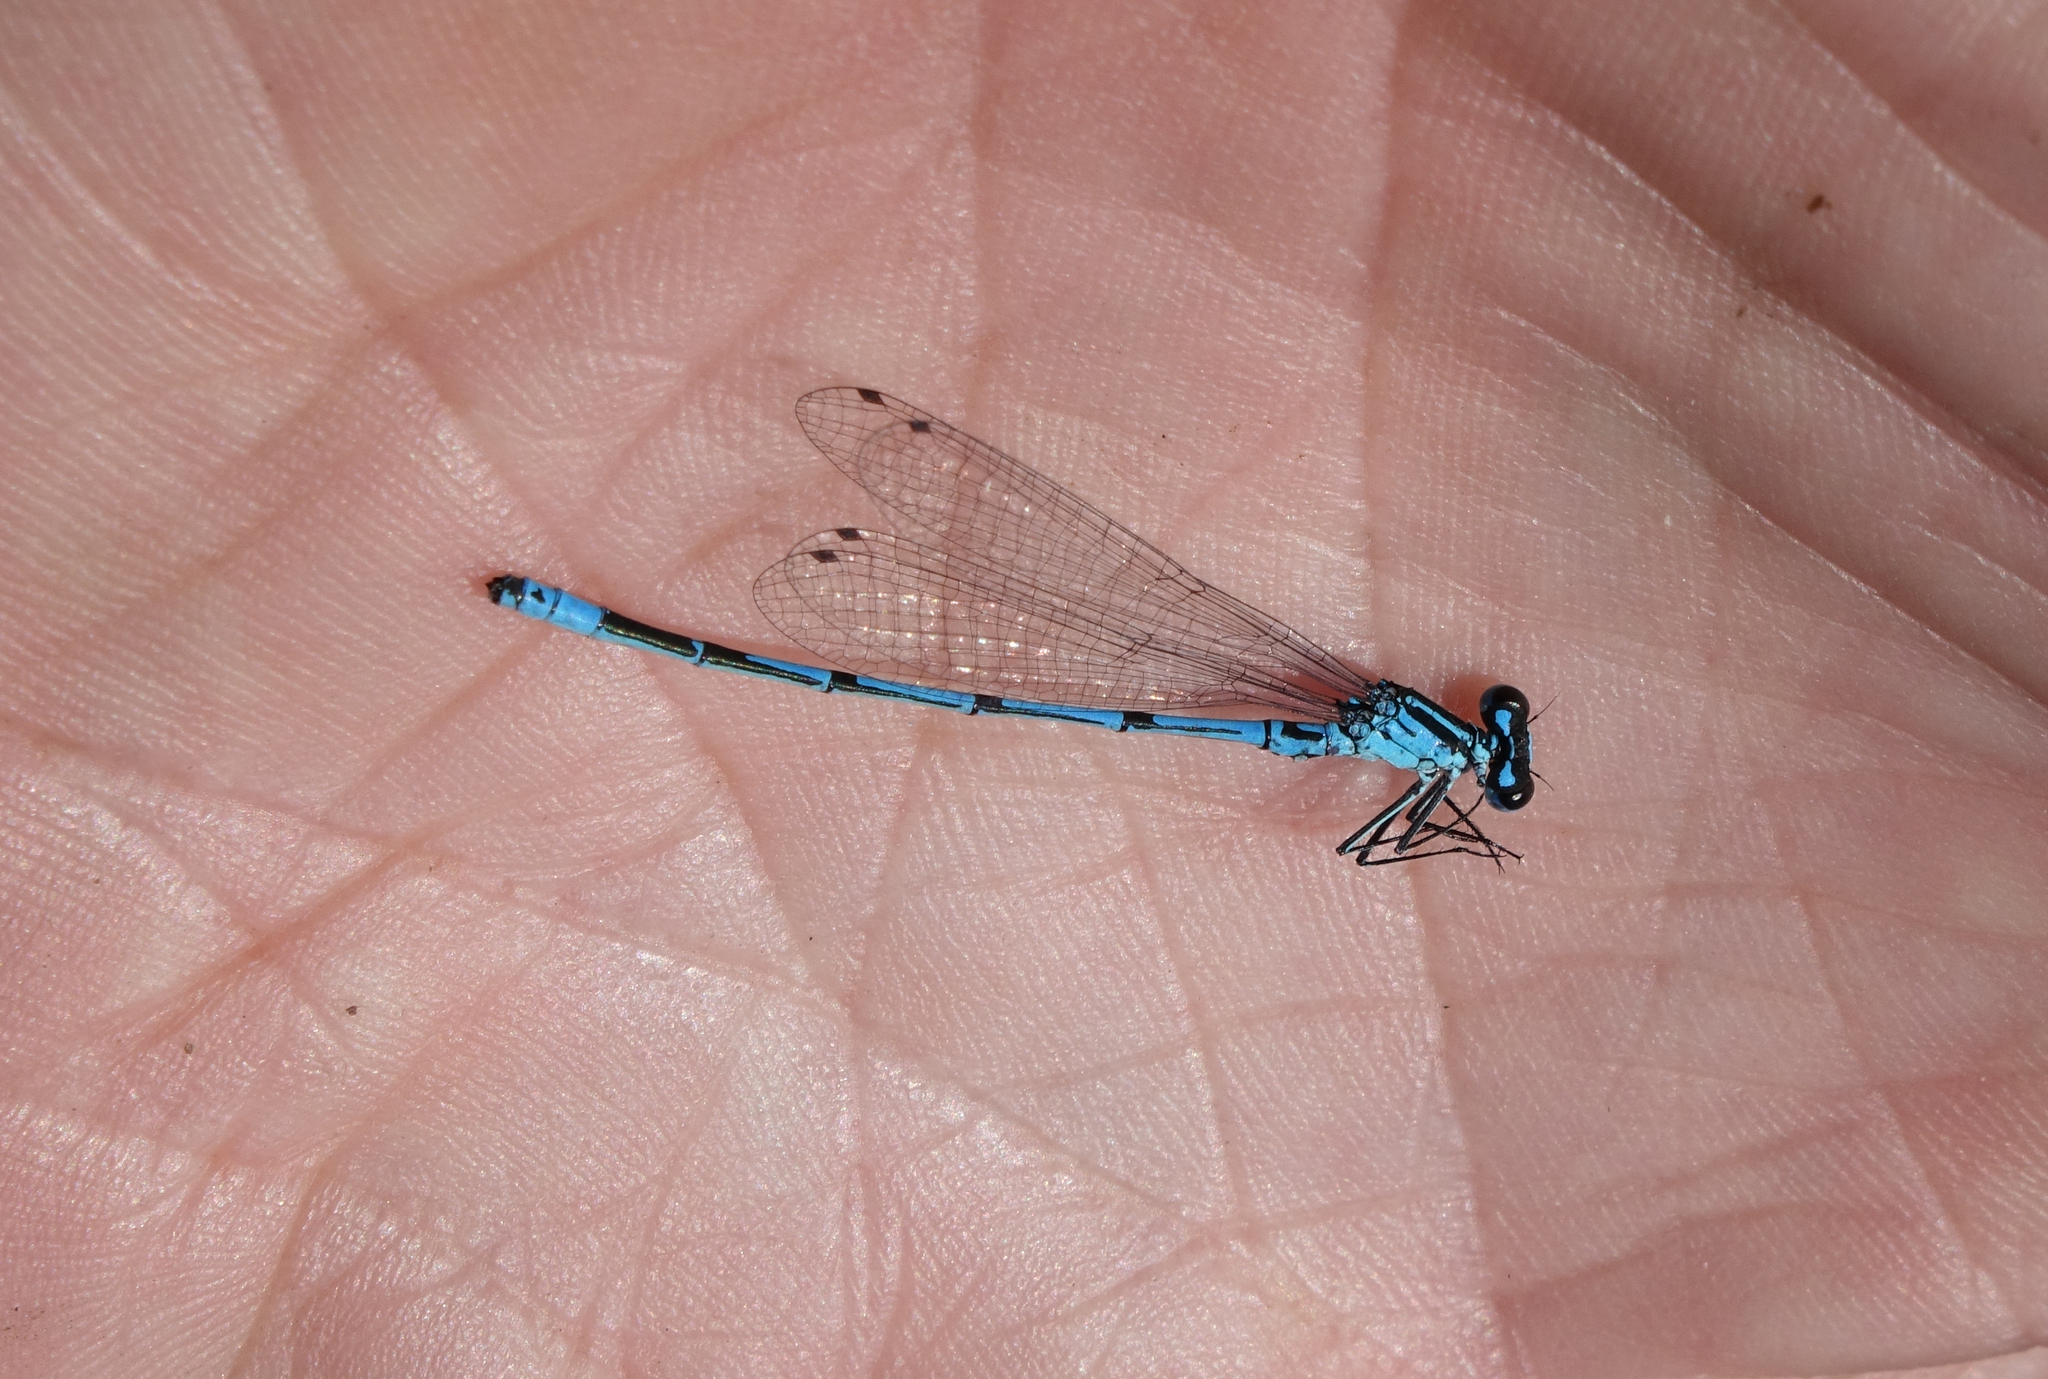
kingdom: Animalia
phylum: Arthropoda
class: Insecta
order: Odonata
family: Coenagrionidae
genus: Coenagrion
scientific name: Coenagrion puella
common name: Azure damselfly
